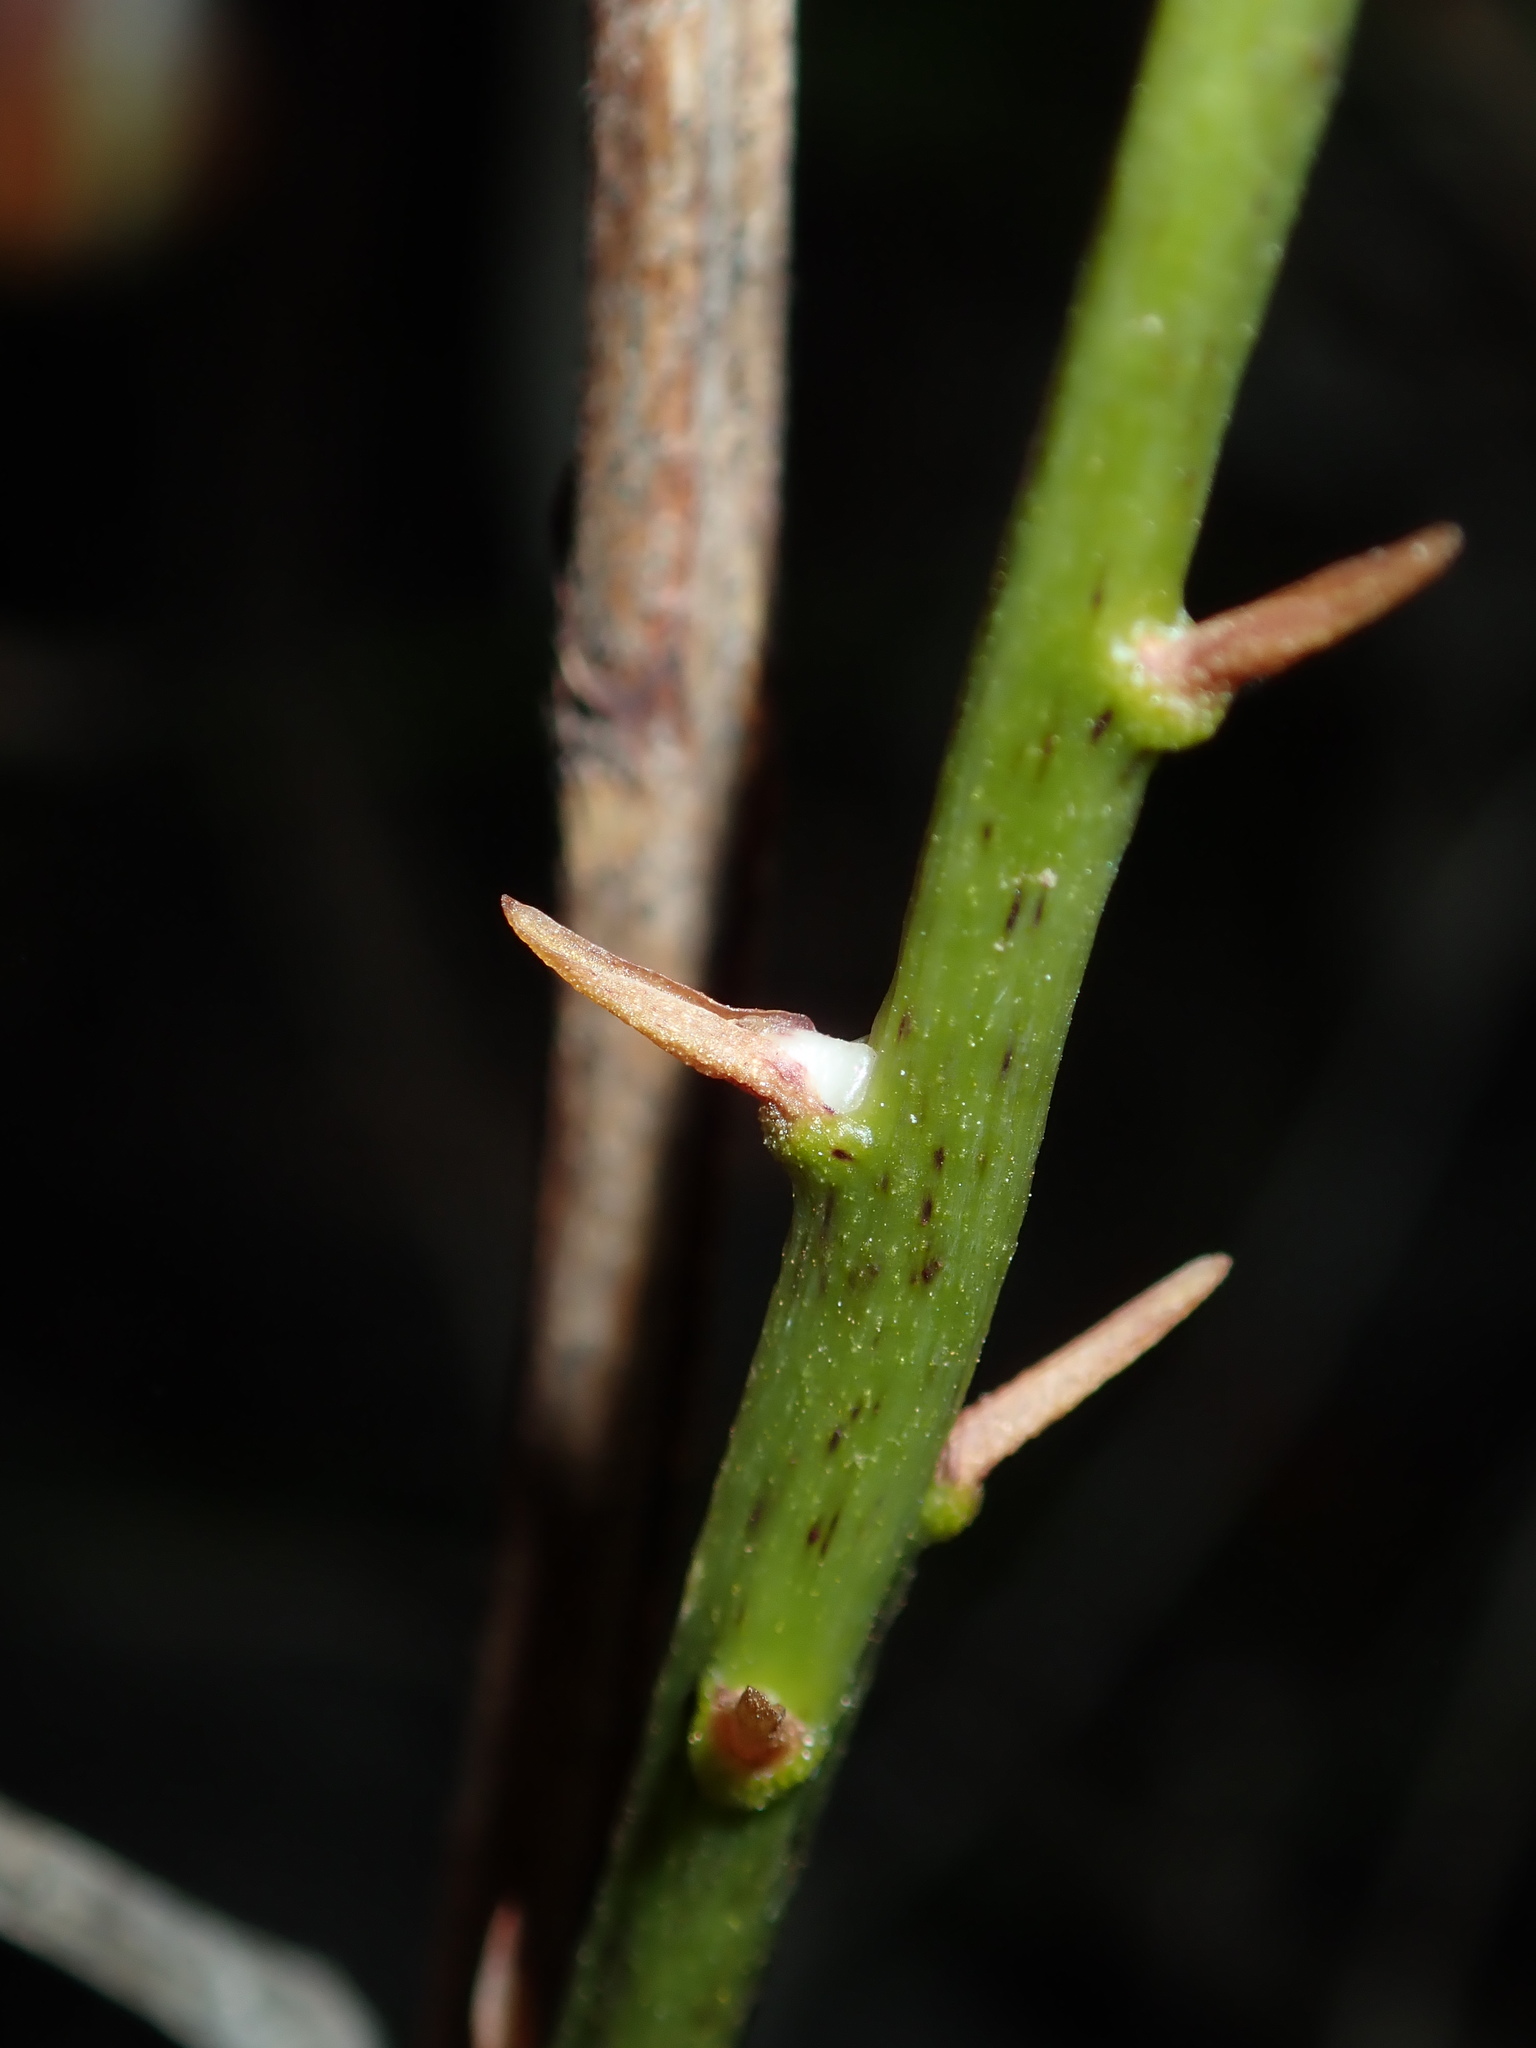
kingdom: Plantae
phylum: Tracheophyta
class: Liliopsida
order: Asparagales
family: Orchidaceae
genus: Dipodium
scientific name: Dipodium variegatum
